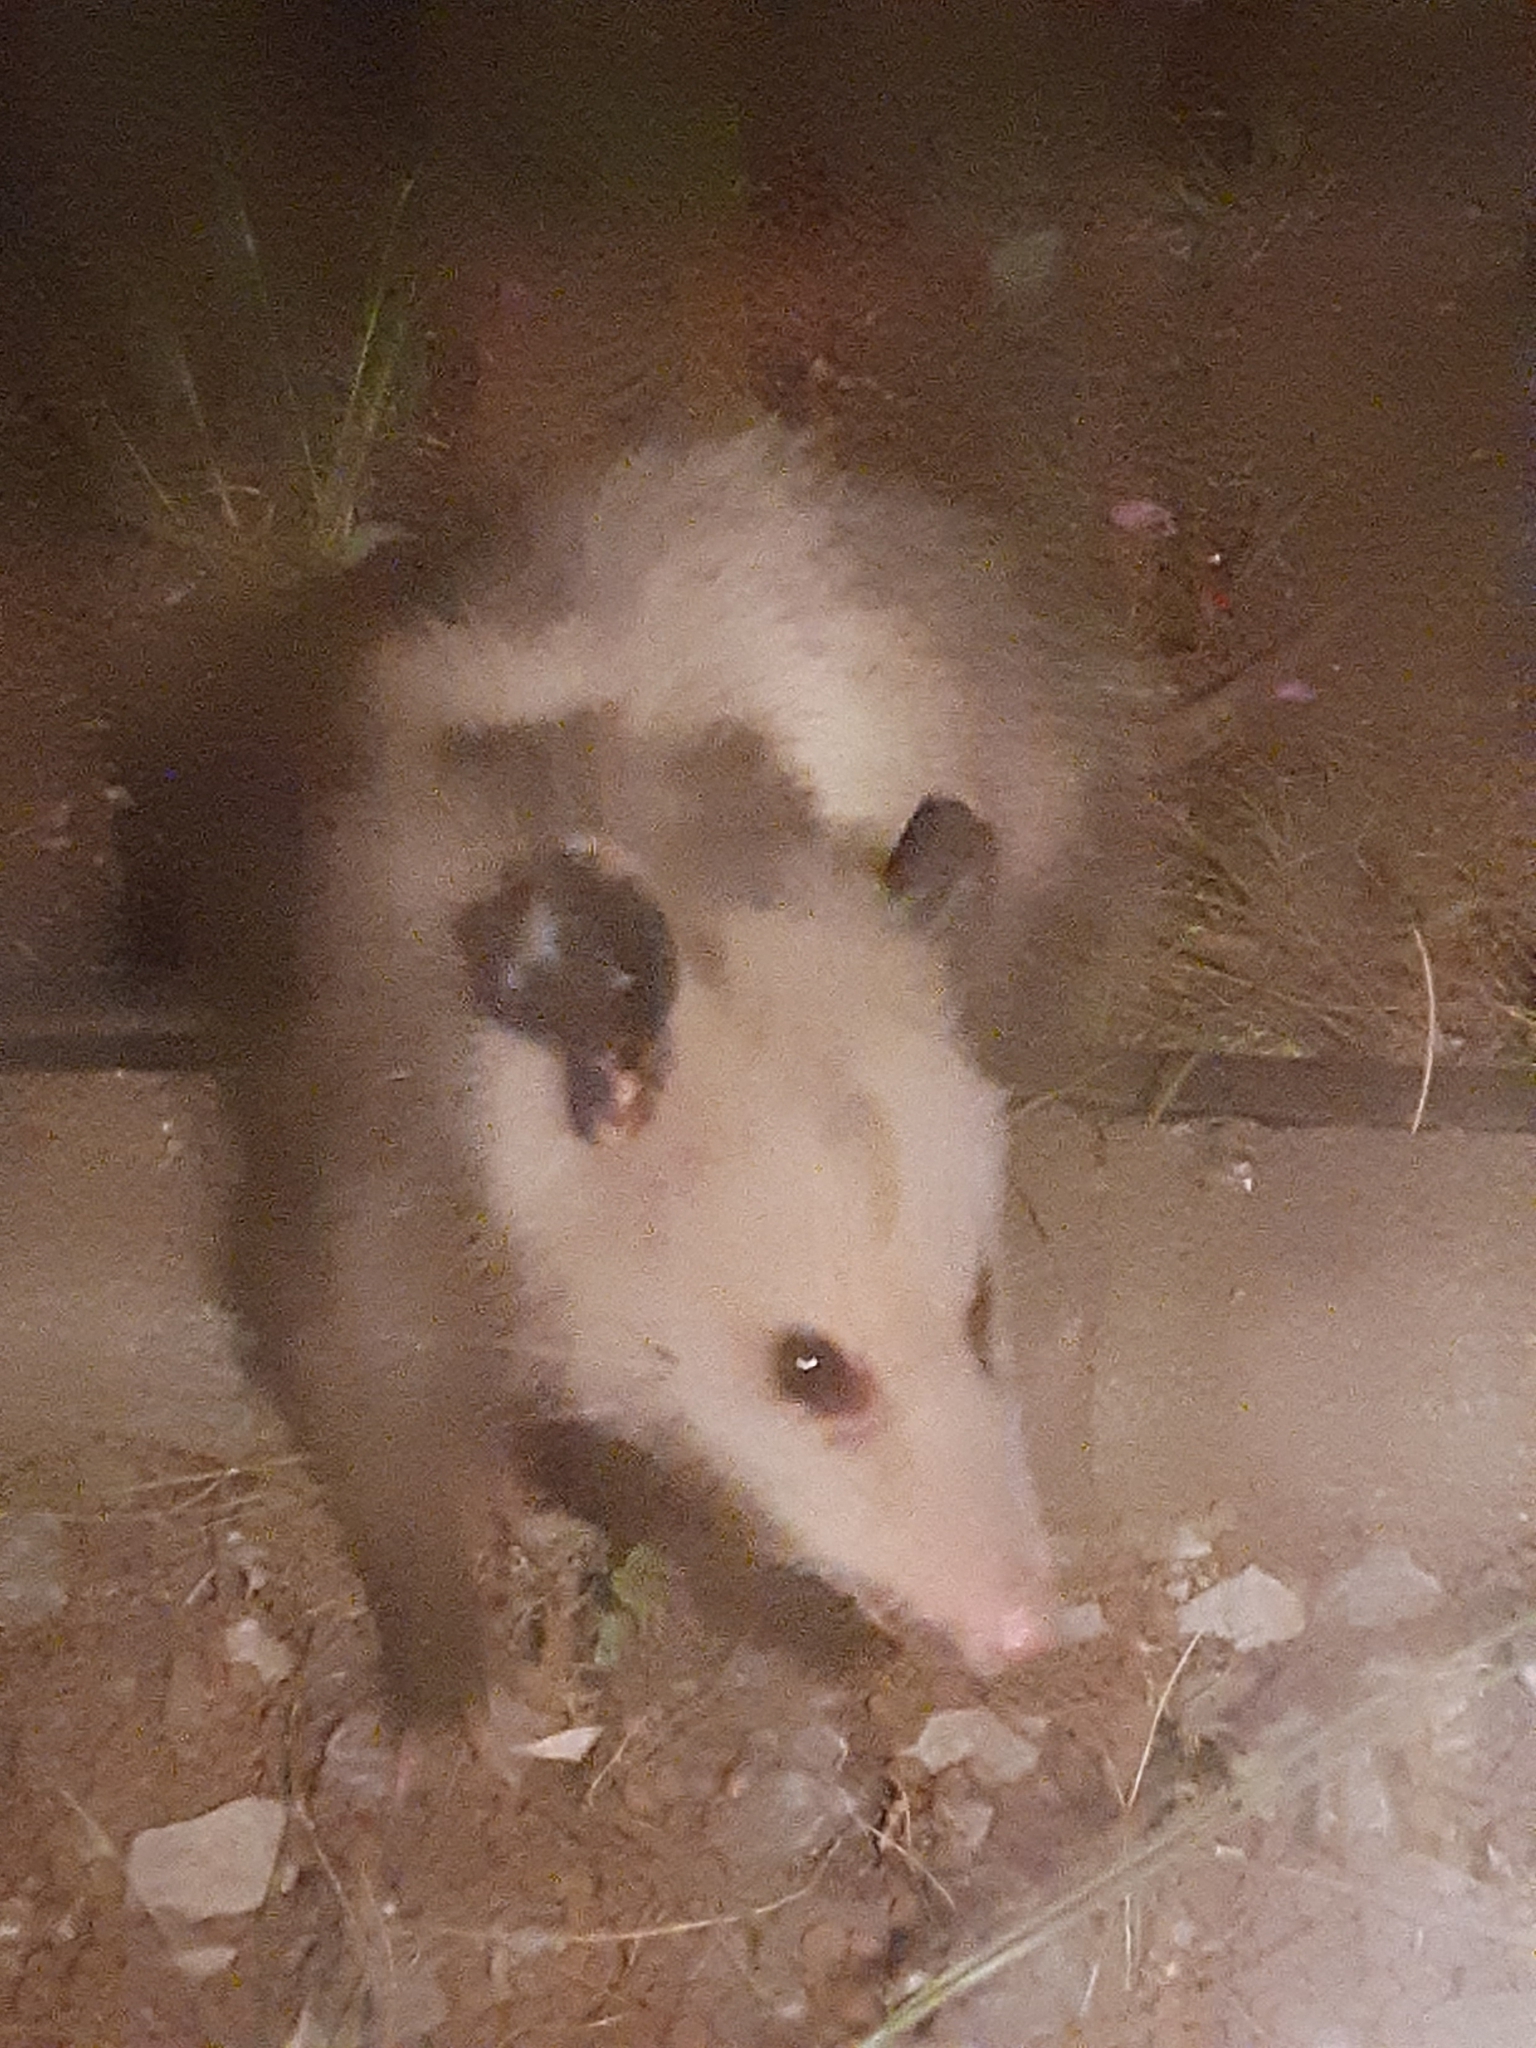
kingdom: Animalia
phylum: Chordata
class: Mammalia
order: Didelphimorphia
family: Didelphidae
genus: Didelphis
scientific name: Didelphis virginiana
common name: Virginia opossum
